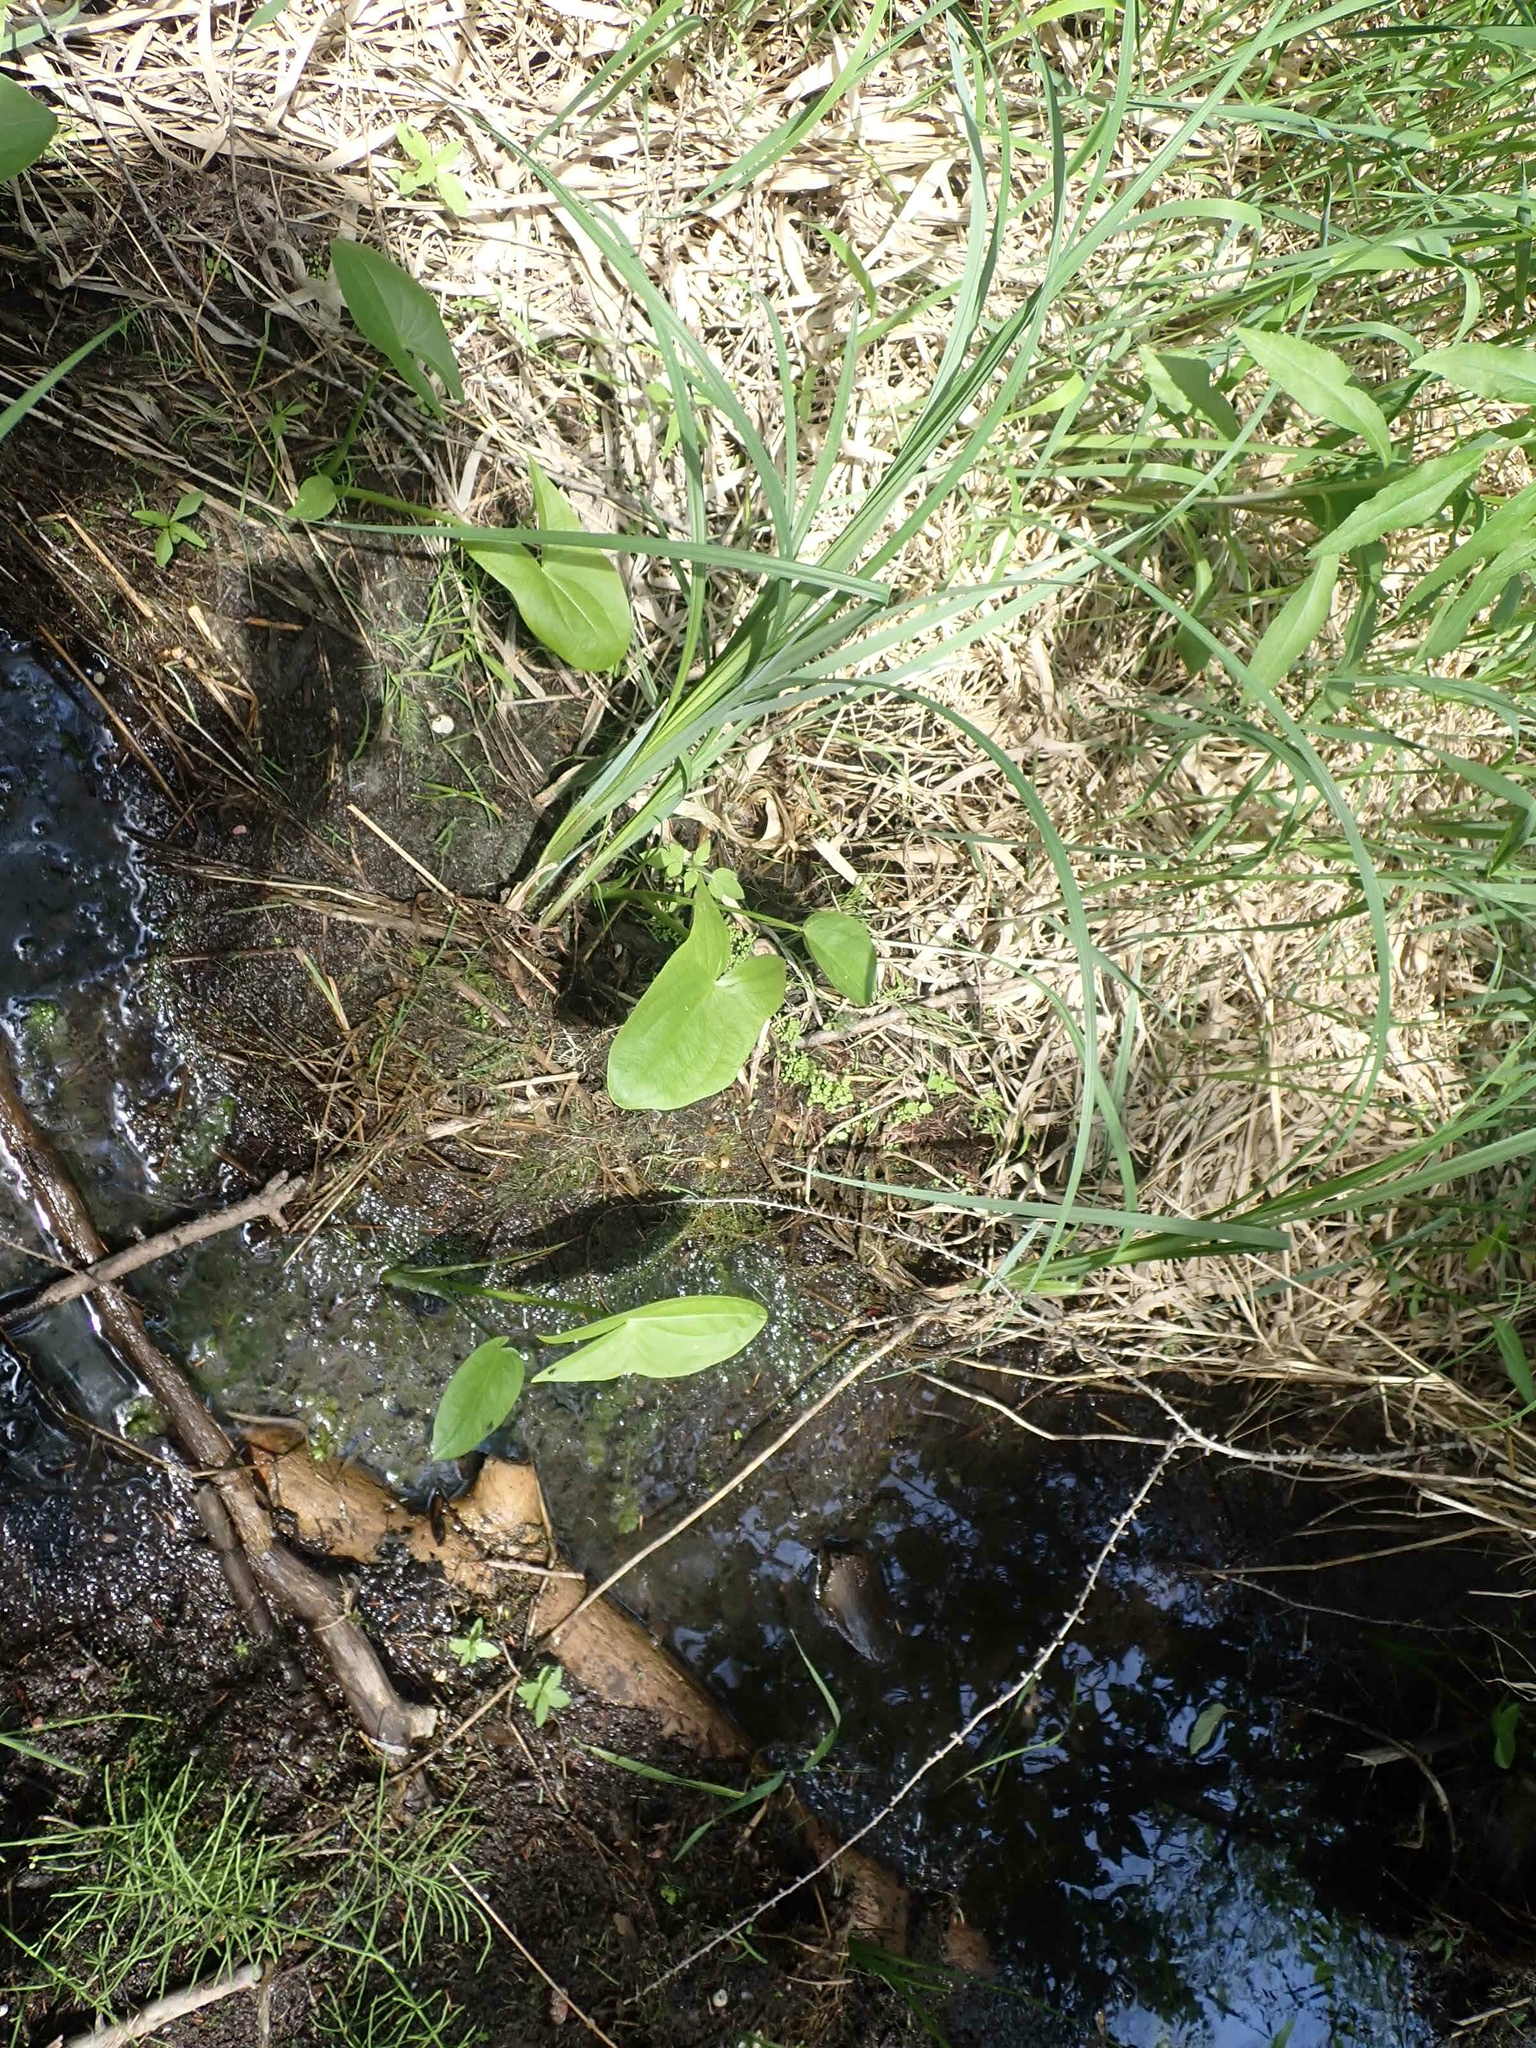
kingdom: Plantae
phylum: Tracheophyta
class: Liliopsida
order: Alismatales
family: Alismataceae
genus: Alisma
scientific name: Alisma triviale
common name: Northern water-plantain
